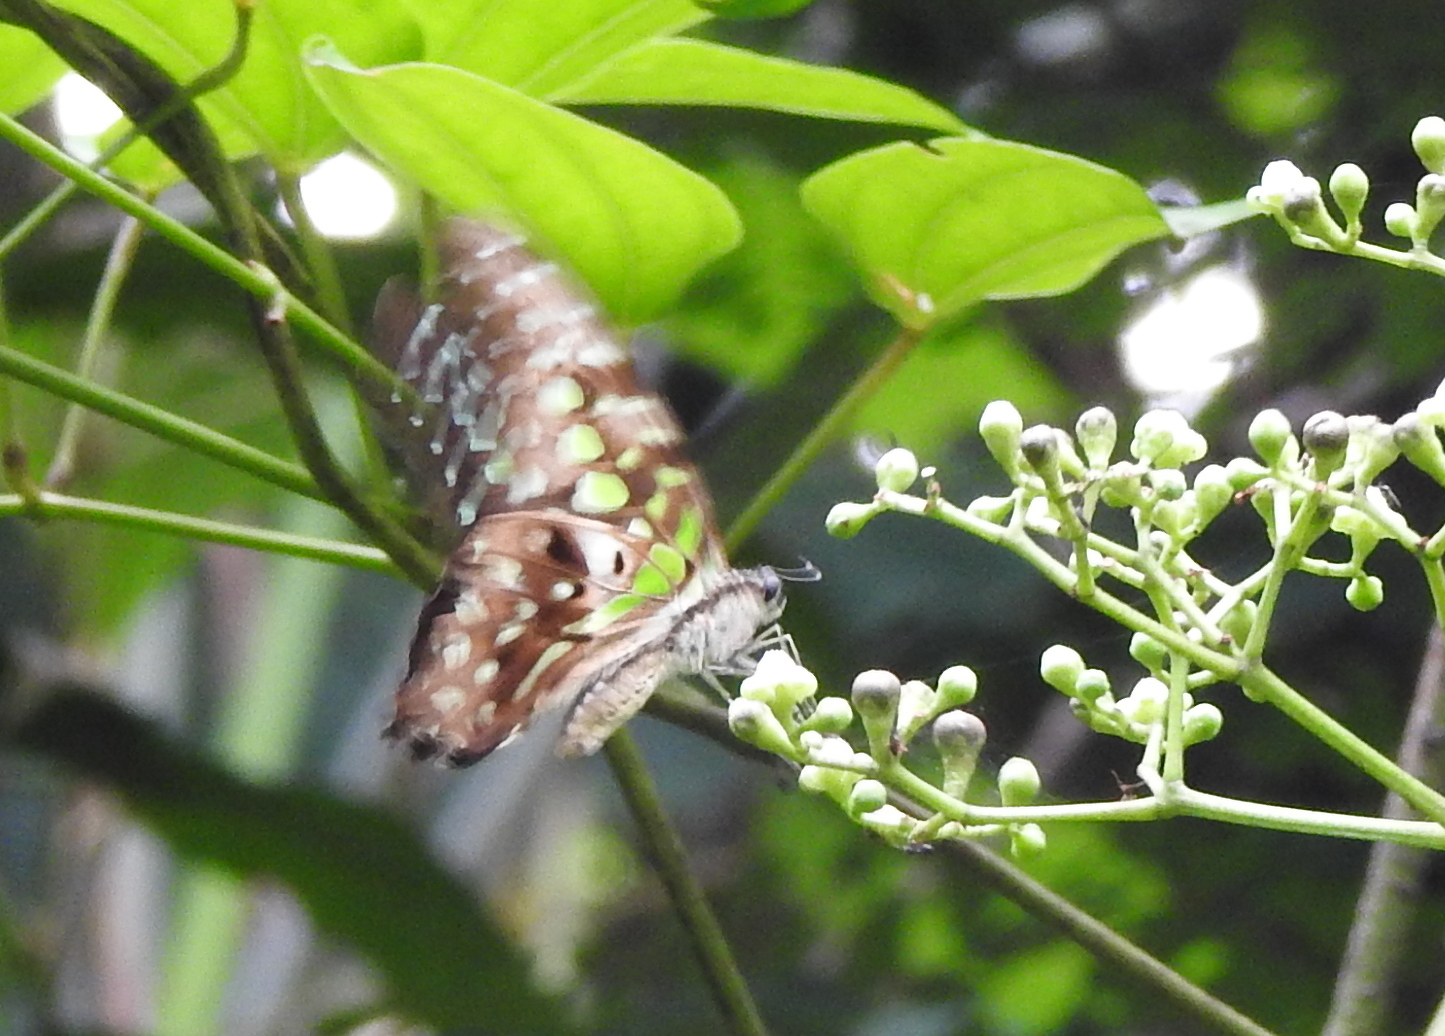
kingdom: Animalia
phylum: Arthropoda
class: Insecta
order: Lepidoptera
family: Papilionidae
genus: Graphium
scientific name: Graphium agamemnon
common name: Tailed jay
